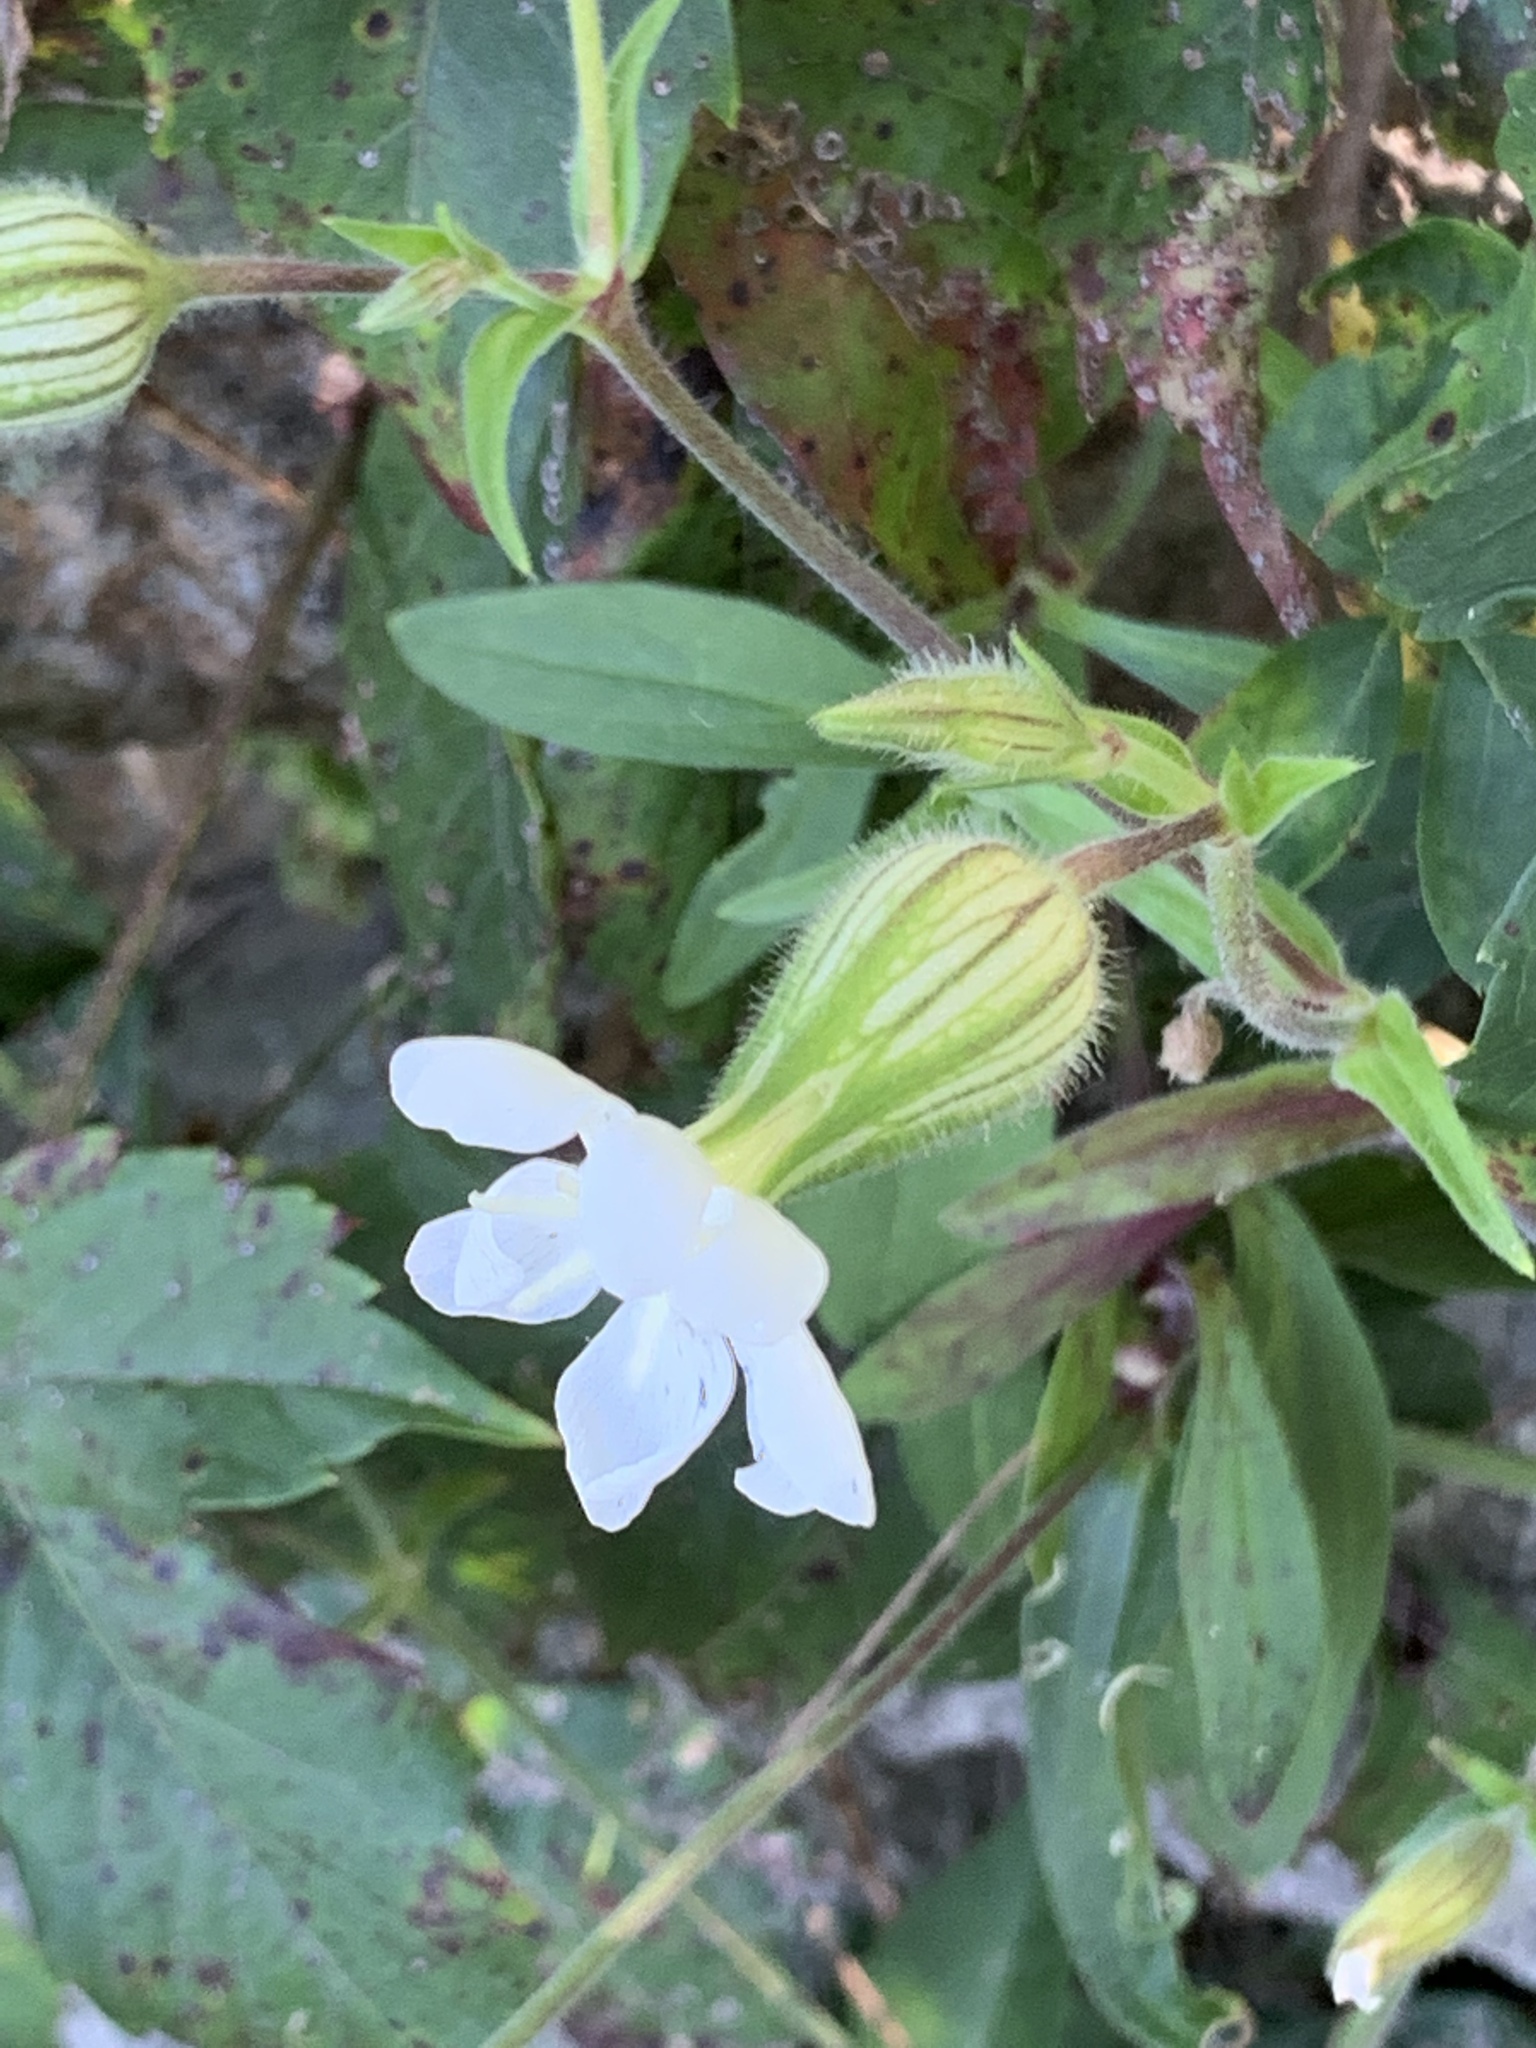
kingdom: Plantae
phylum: Tracheophyta
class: Magnoliopsida
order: Caryophyllales
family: Caryophyllaceae
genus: Silene
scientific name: Silene latifolia
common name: White campion
